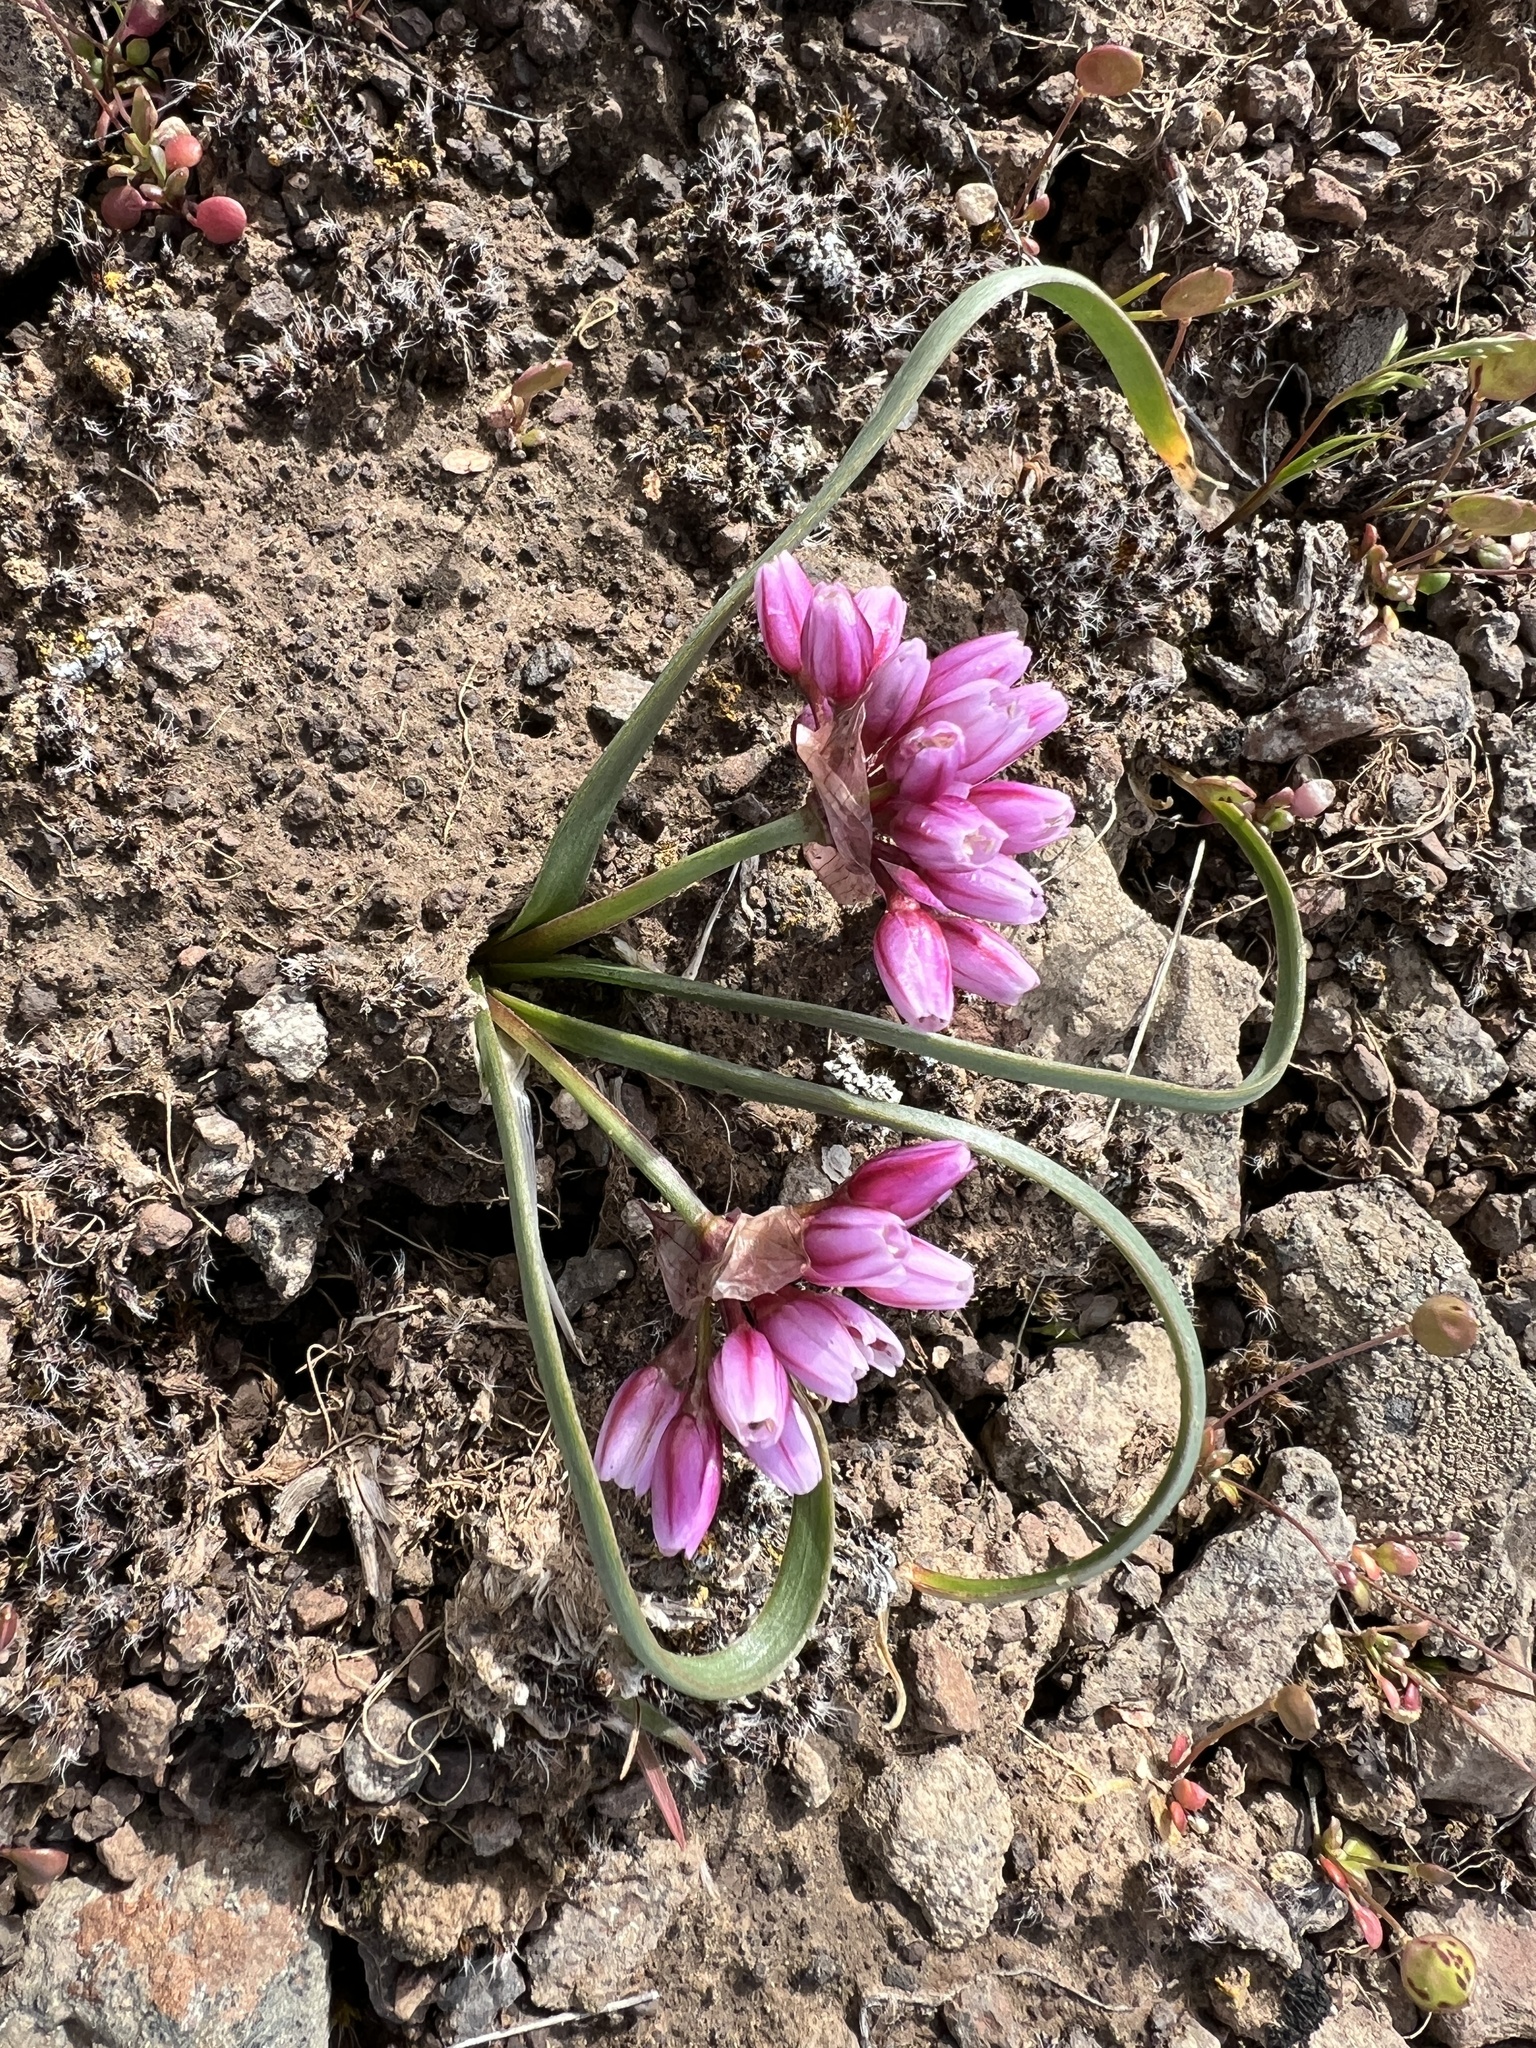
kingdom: Plantae
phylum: Tracheophyta
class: Liliopsida
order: Asparagales
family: Amaryllidaceae
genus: Allium
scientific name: Allium scilloides
